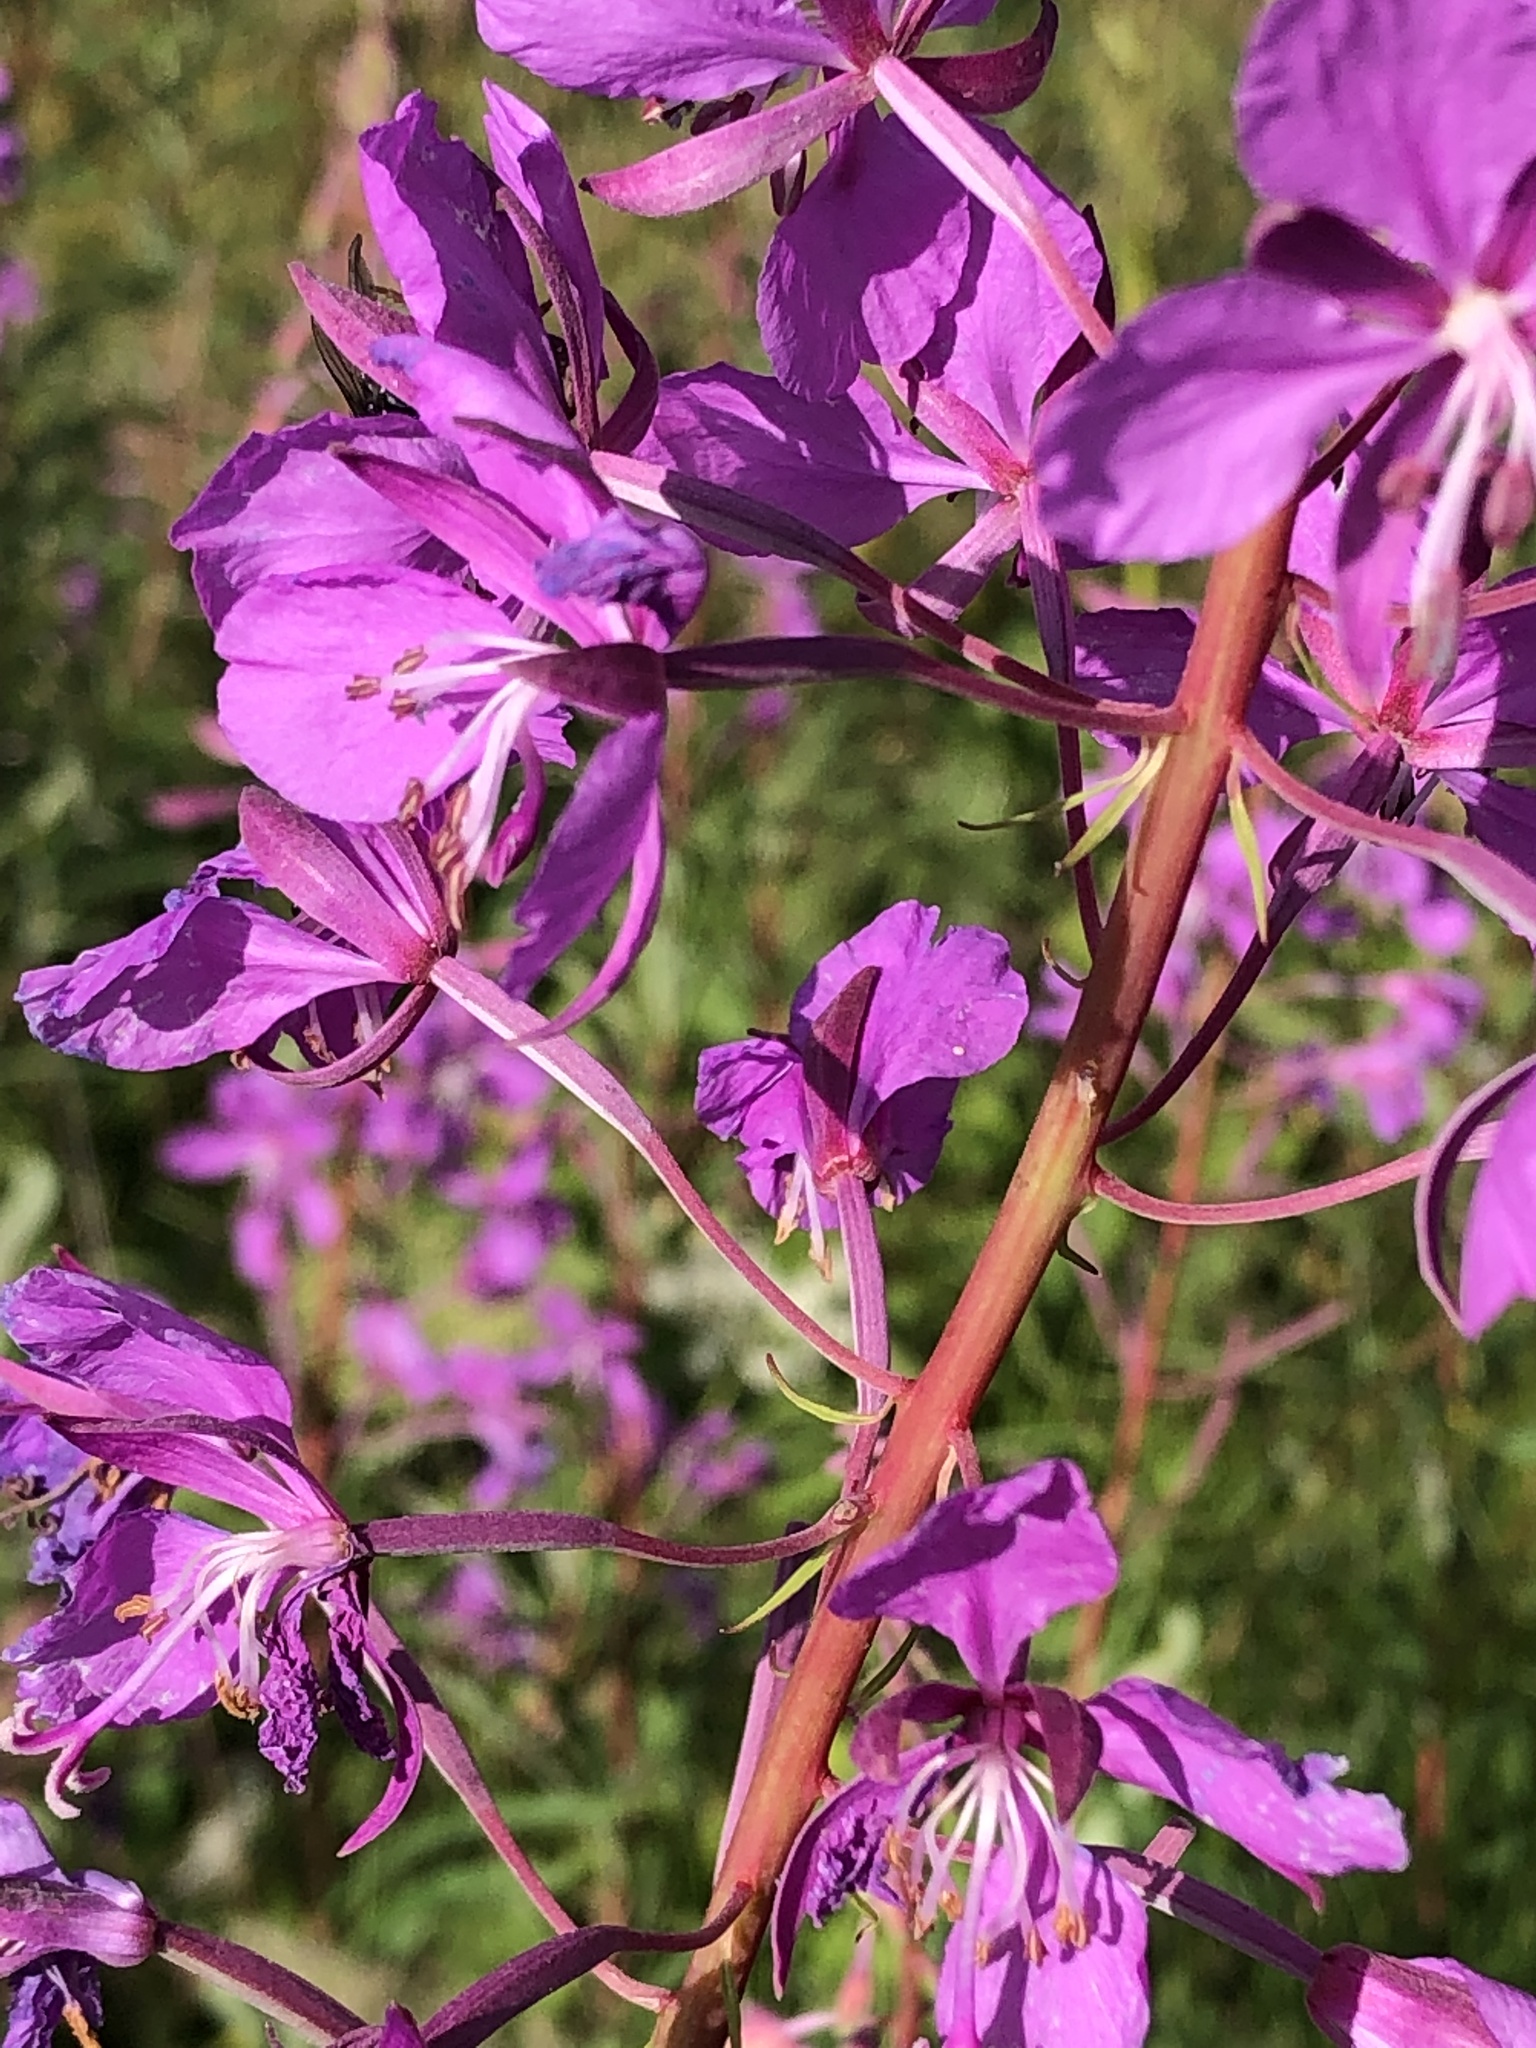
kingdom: Plantae
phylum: Tracheophyta
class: Magnoliopsida
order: Myrtales
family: Onagraceae
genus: Chamaenerion
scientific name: Chamaenerion angustifolium
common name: Fireweed
